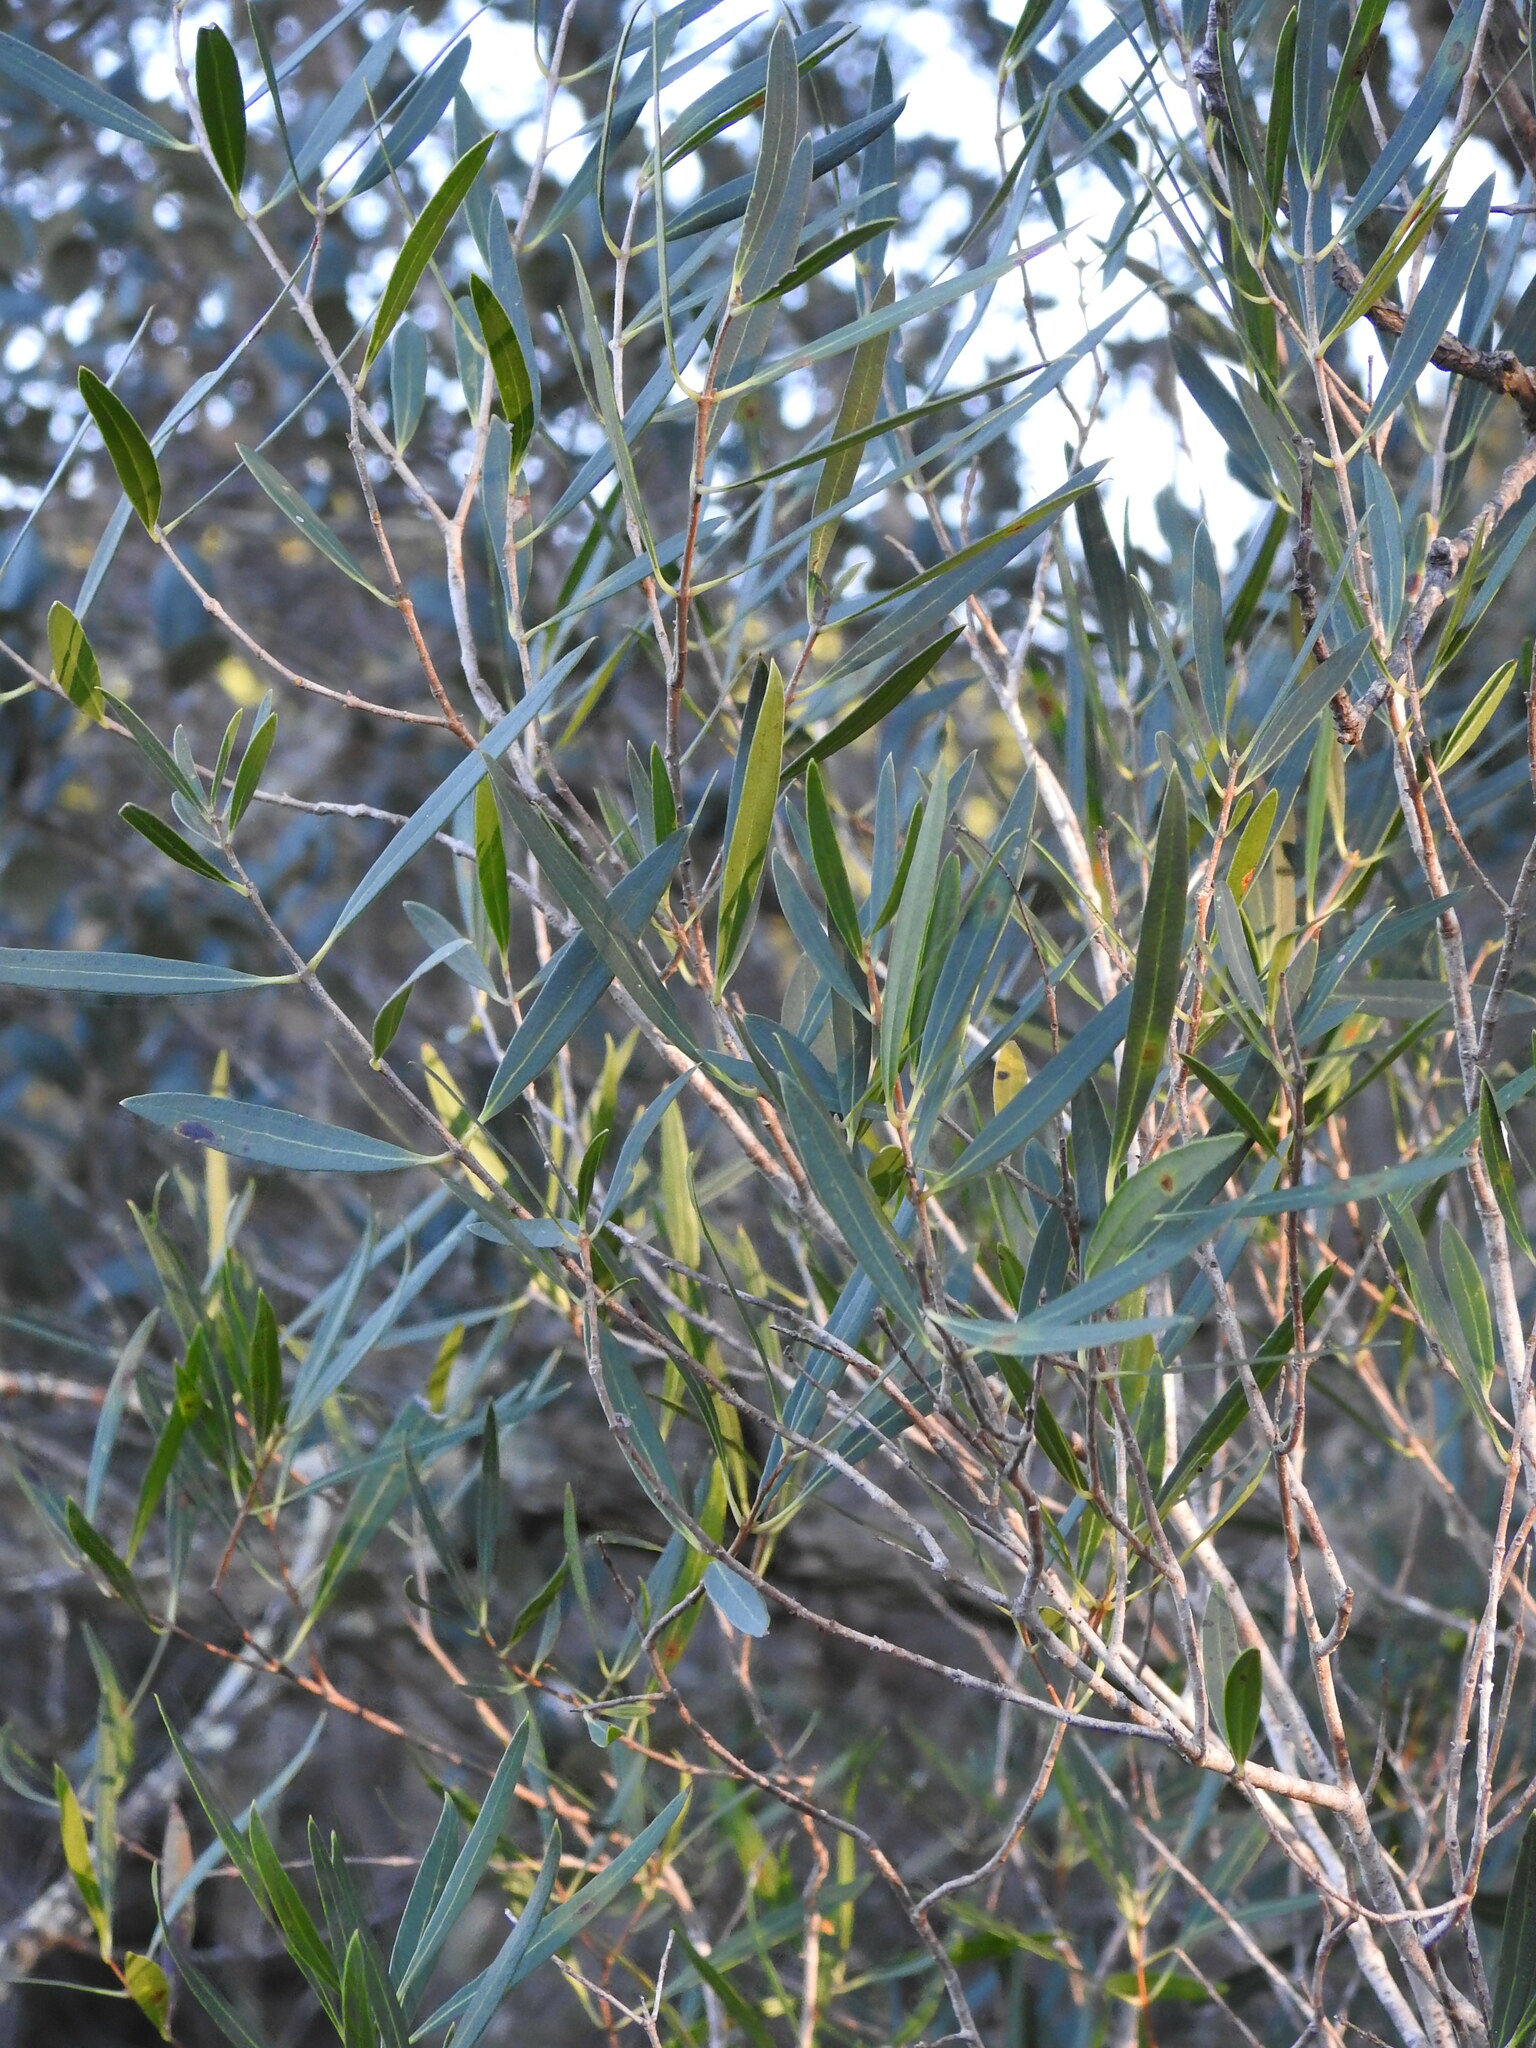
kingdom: Plantae
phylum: Tracheophyta
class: Magnoliopsida
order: Lamiales
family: Oleaceae
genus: Phillyrea
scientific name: Phillyrea angustifolia
